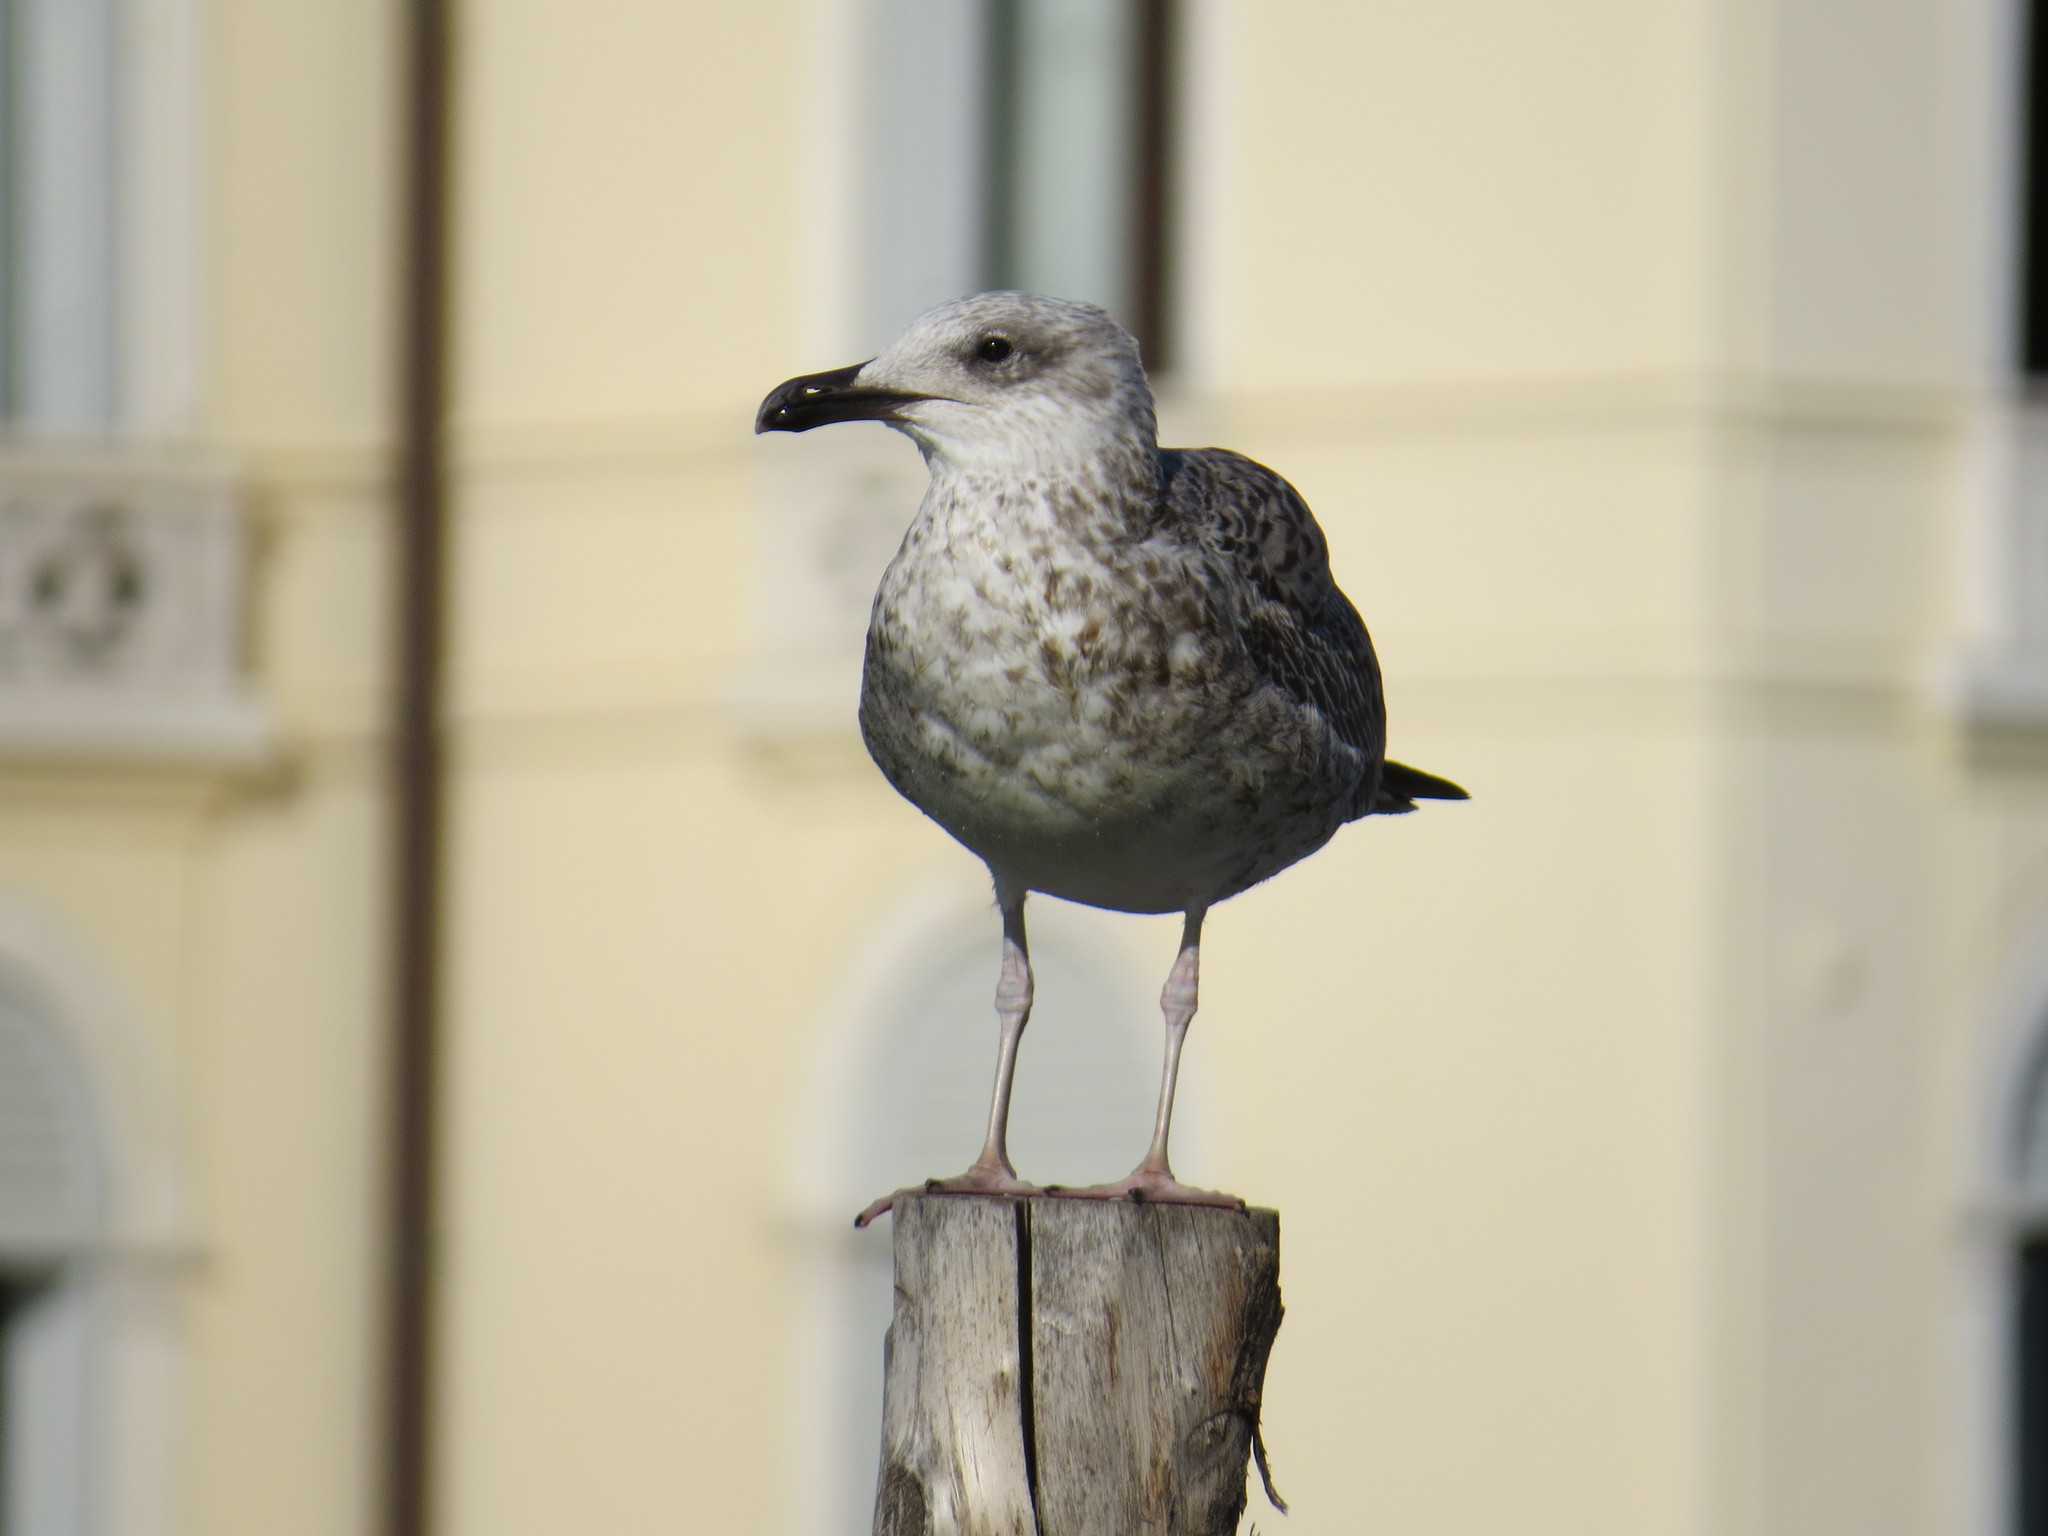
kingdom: Animalia
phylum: Chordata
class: Aves
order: Charadriiformes
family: Laridae
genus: Larus
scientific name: Larus michahellis
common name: Yellow-legged gull
